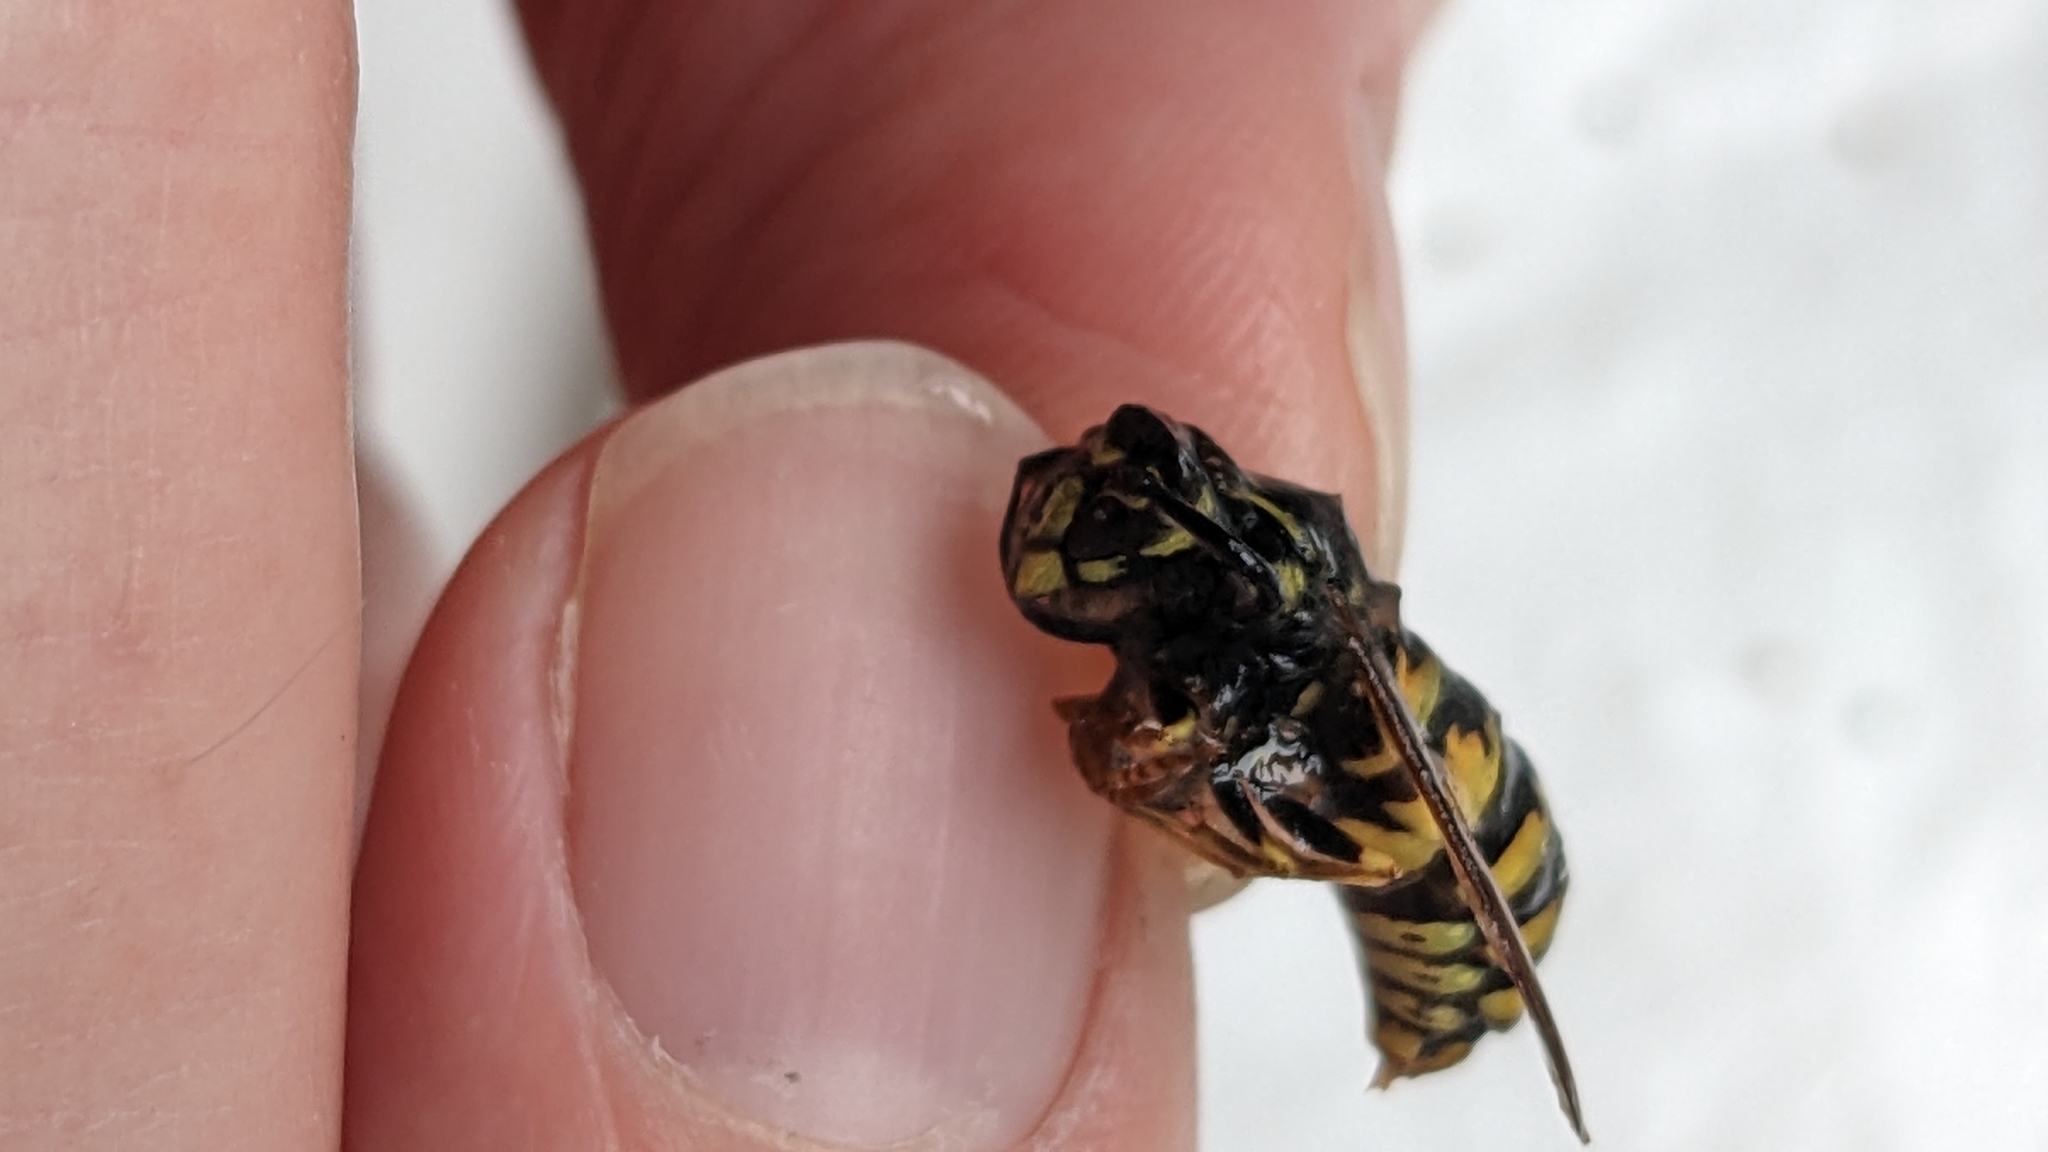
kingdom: Animalia
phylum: Arthropoda
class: Insecta
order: Hymenoptera
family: Vespidae
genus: Vespula
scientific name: Vespula vulgaris
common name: Common wasp
